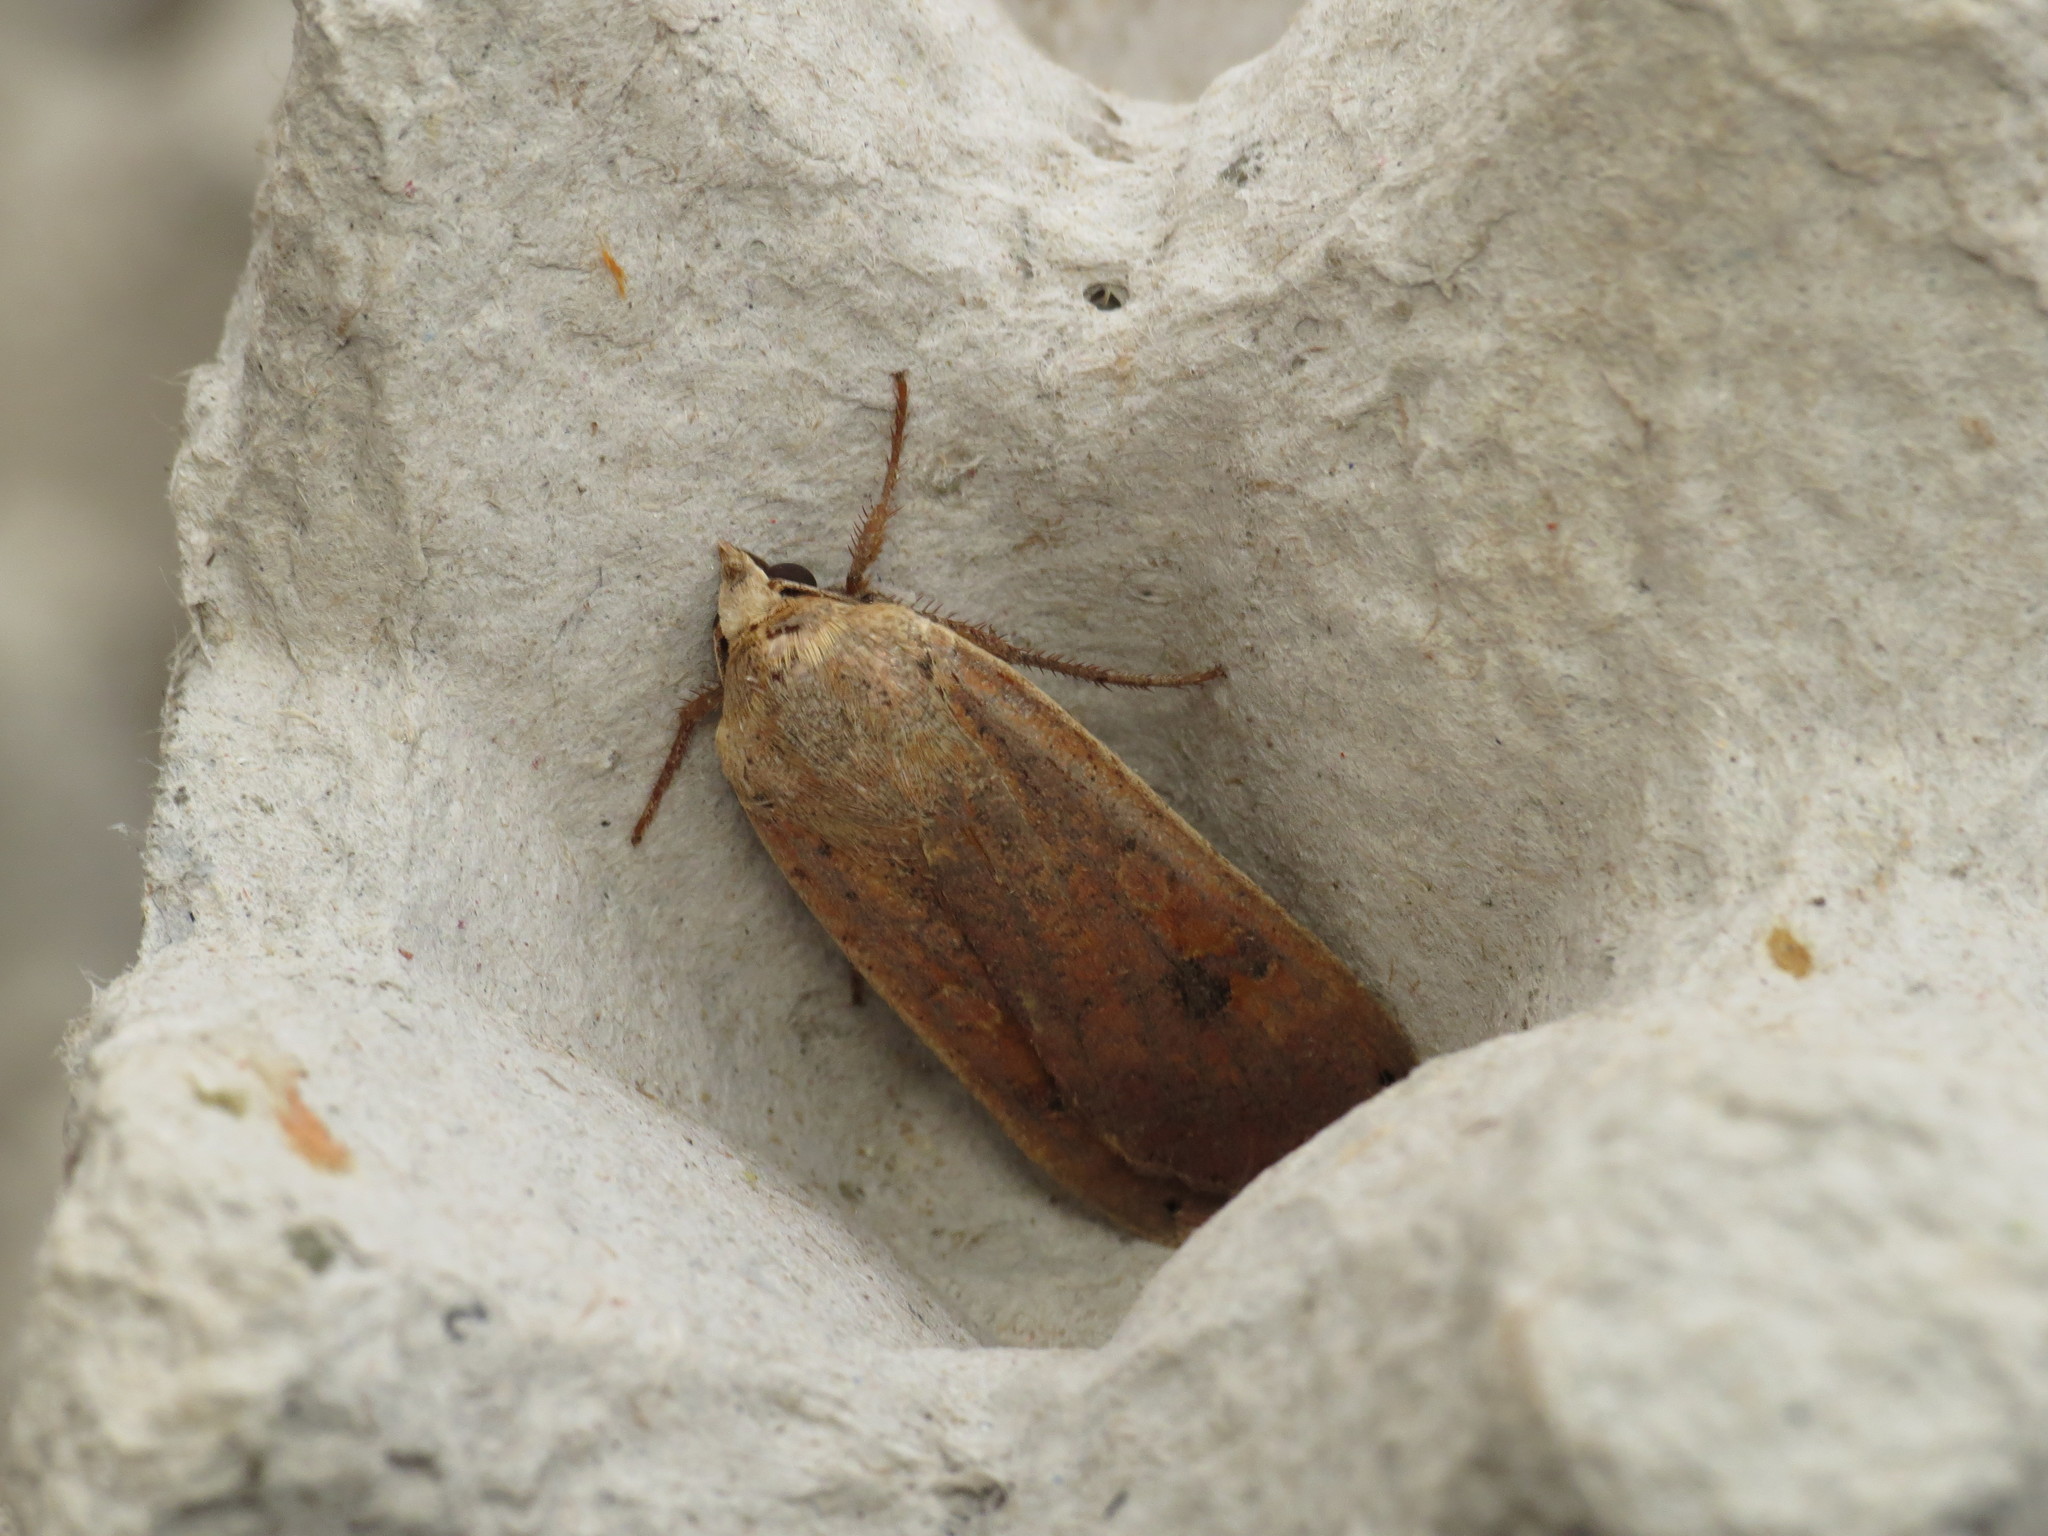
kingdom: Animalia
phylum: Arthropoda
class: Insecta
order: Lepidoptera
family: Noctuidae
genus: Noctua
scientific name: Noctua pronuba
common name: Large yellow underwing
